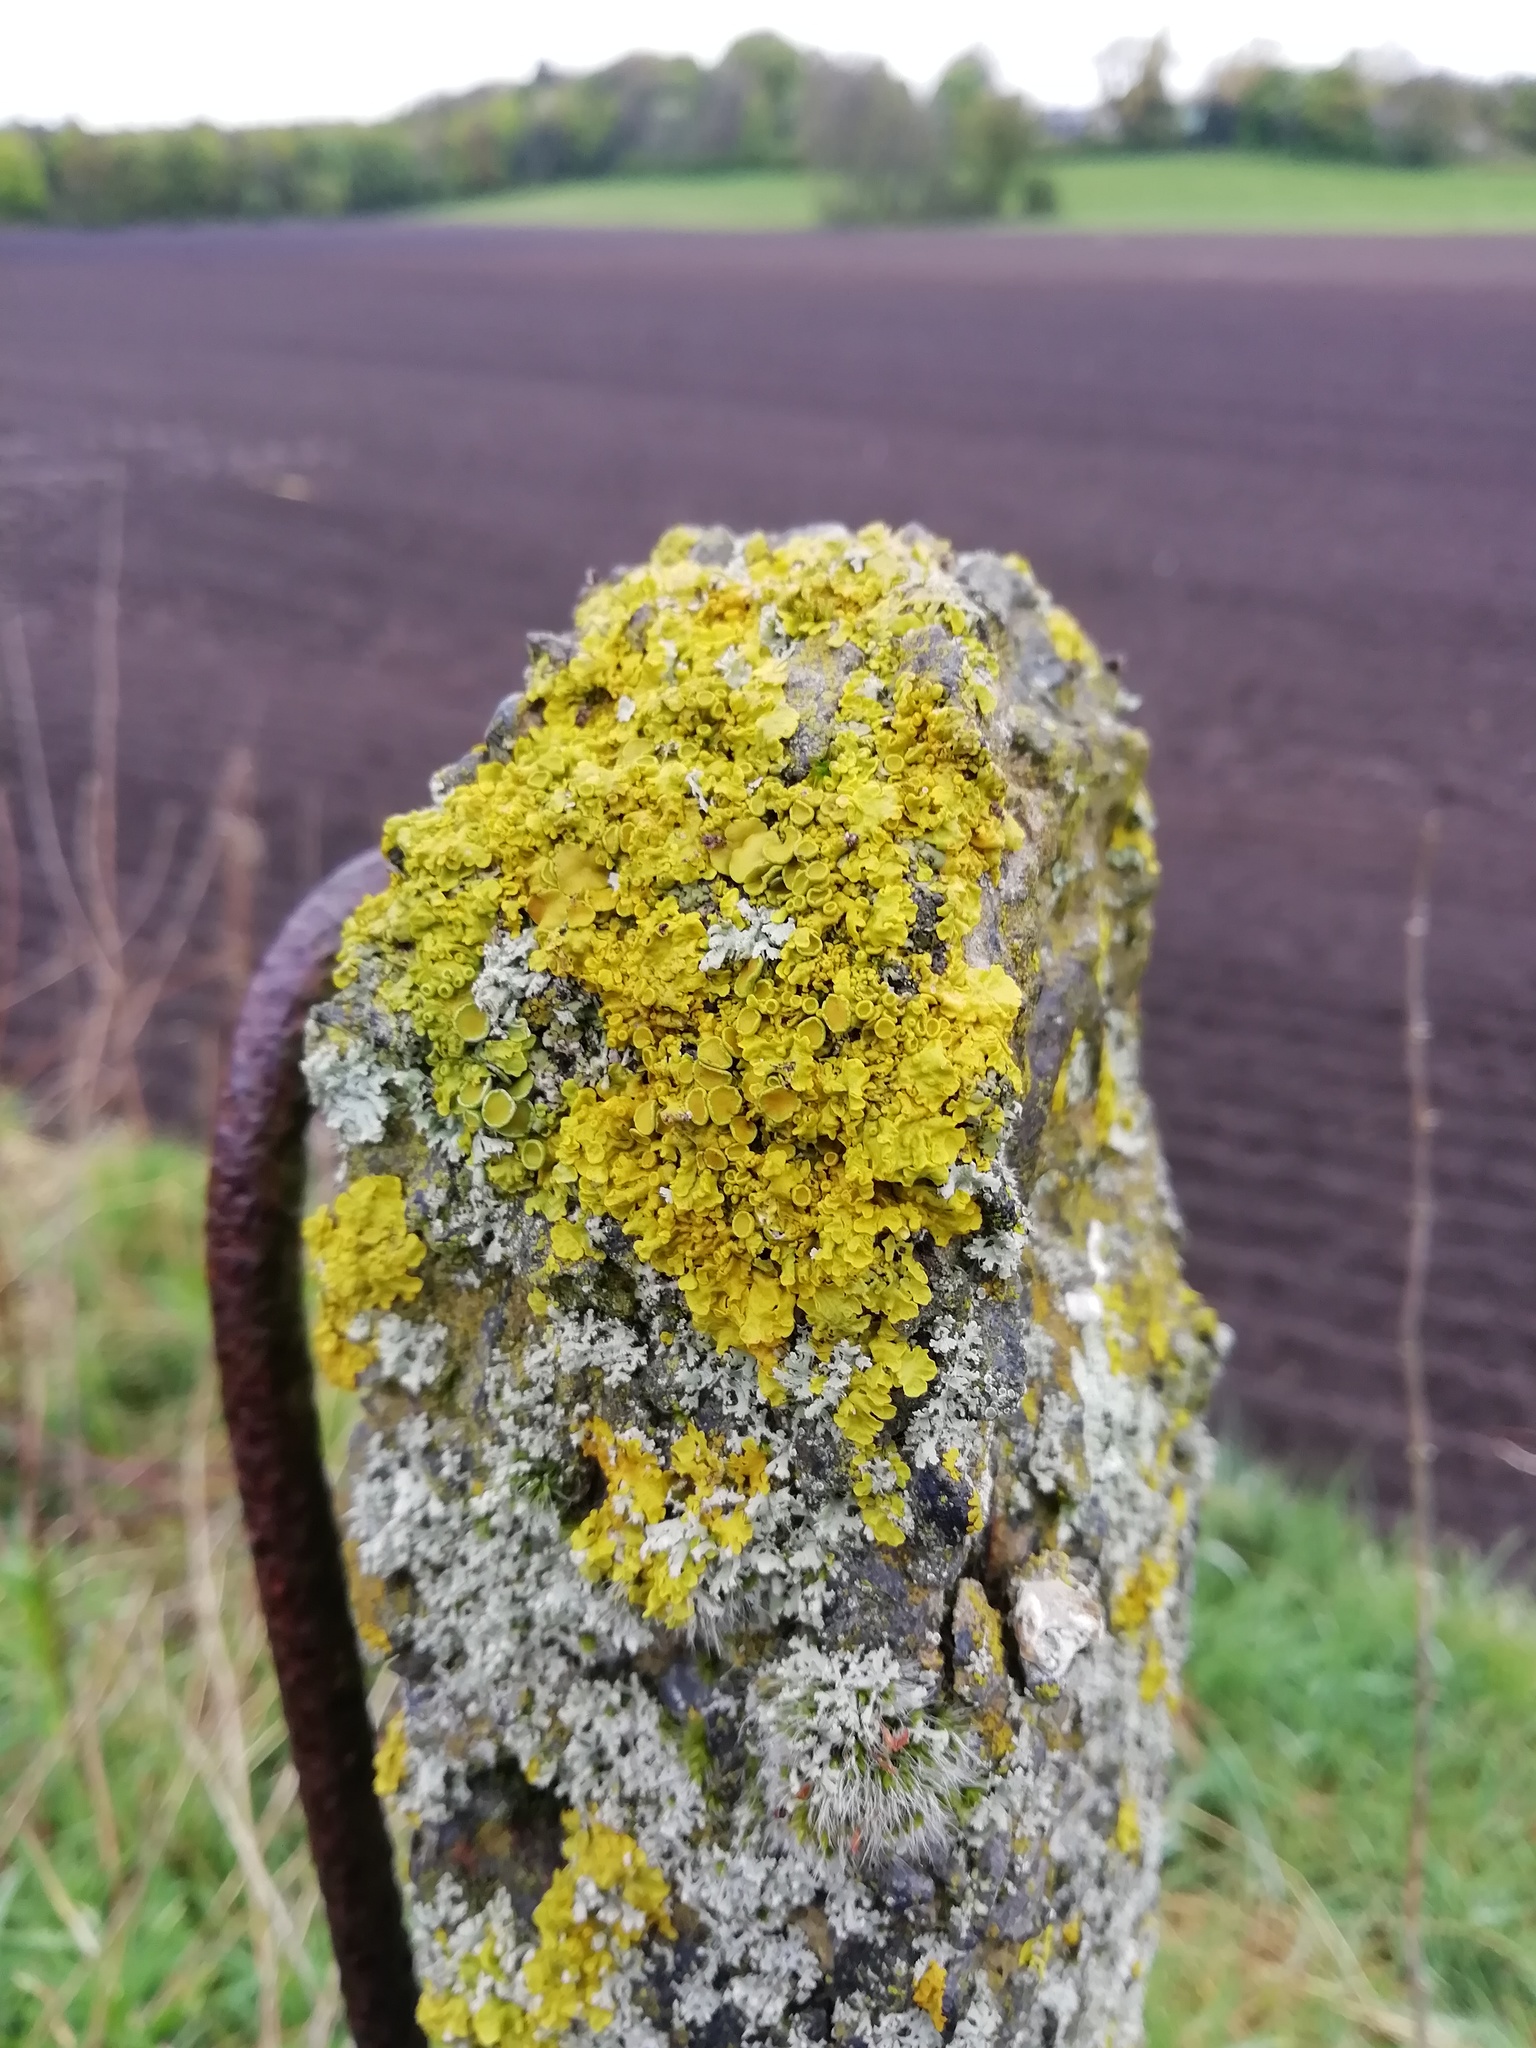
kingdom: Fungi
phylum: Ascomycota
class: Lecanoromycetes
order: Teloschistales
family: Teloschistaceae
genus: Xanthoria
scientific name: Xanthoria parietina
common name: Common orange lichen
